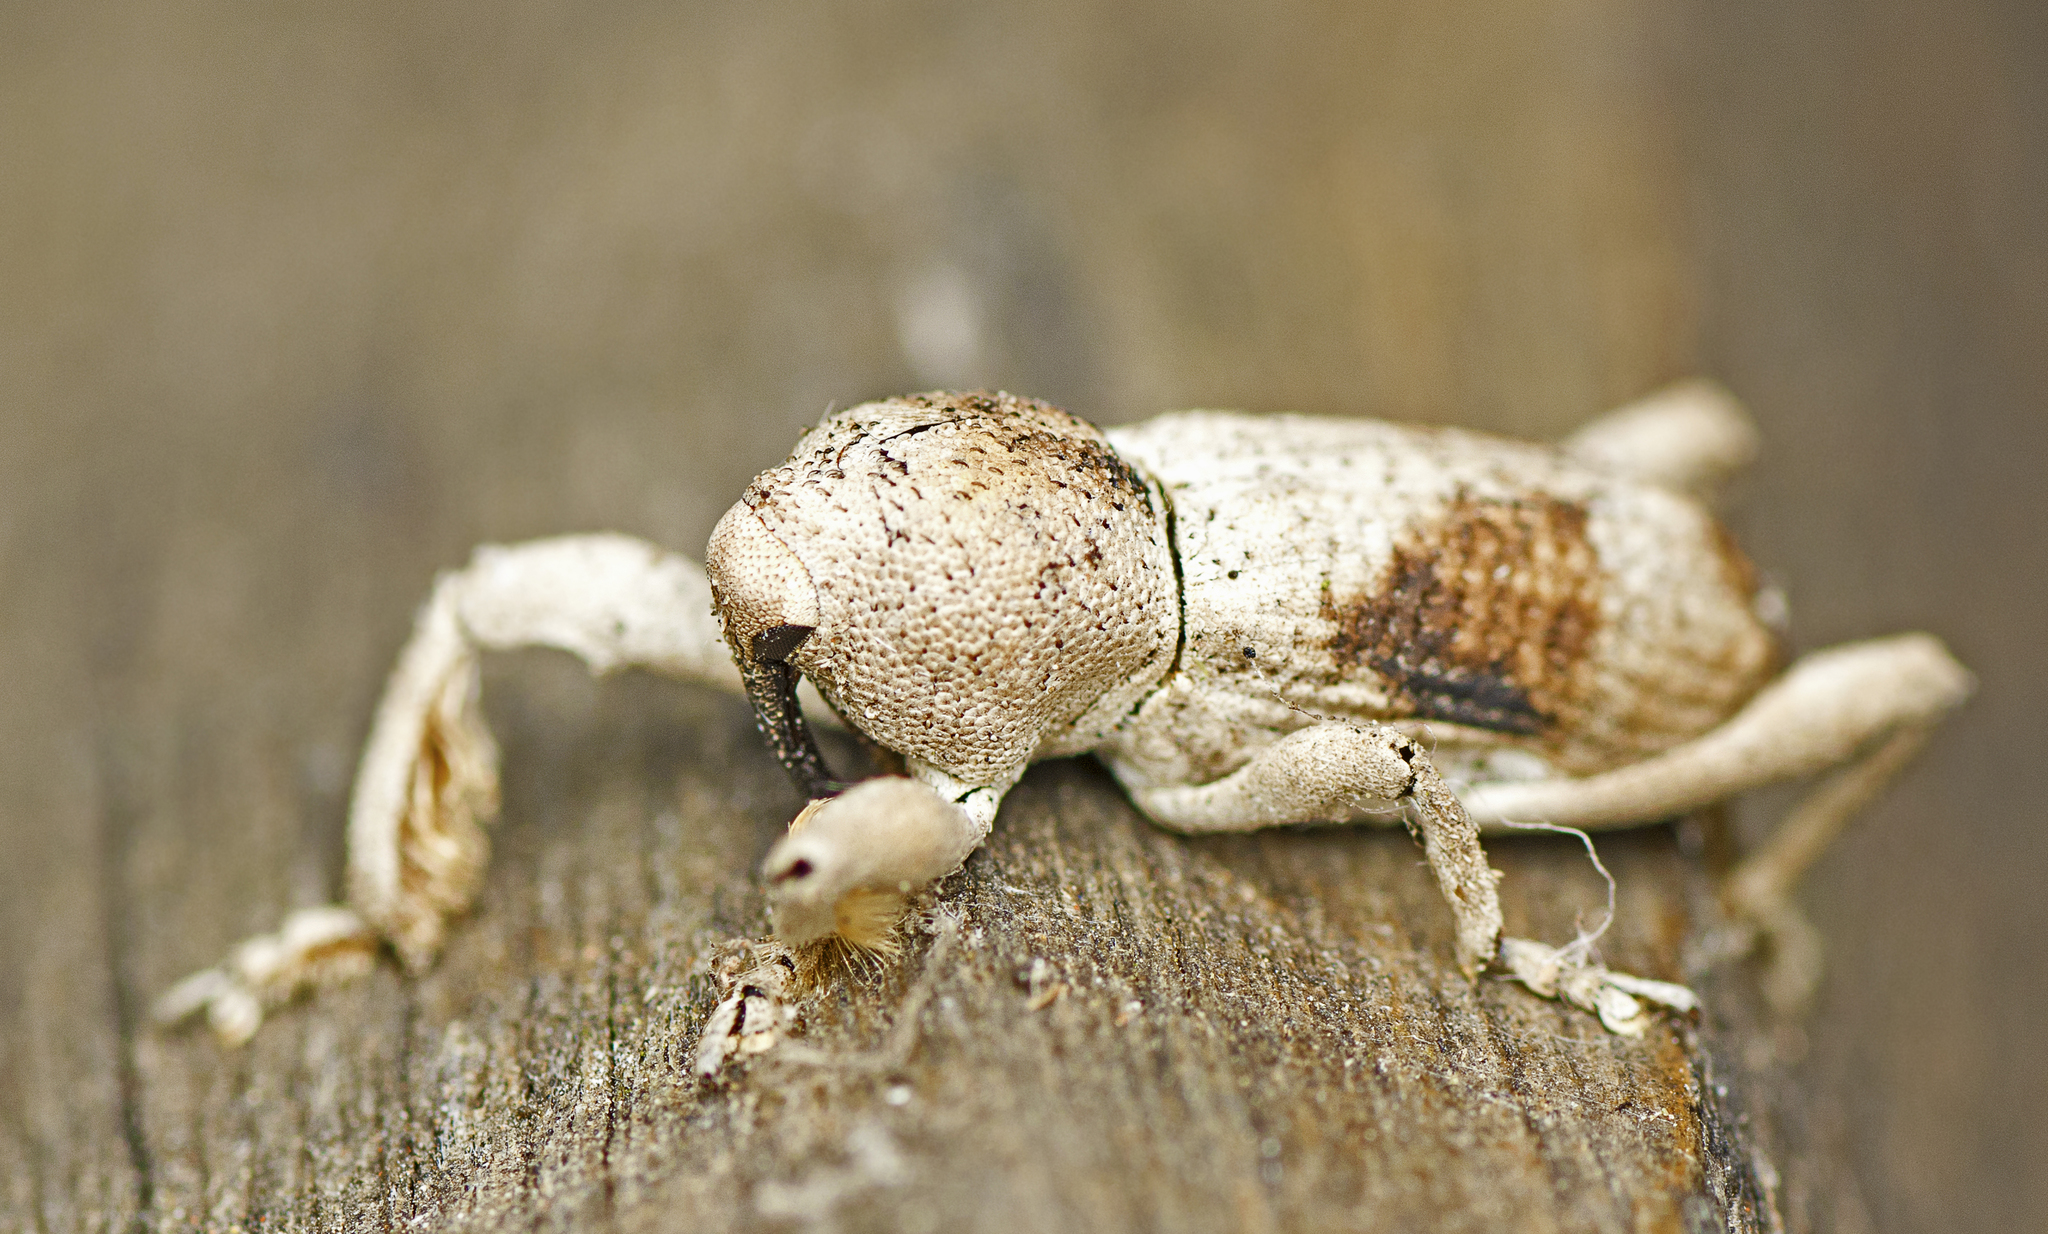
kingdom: Animalia
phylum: Arthropoda
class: Insecta
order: Coleoptera
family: Curculionidae
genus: Camptorhinus
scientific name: Camptorhinus inornatus
